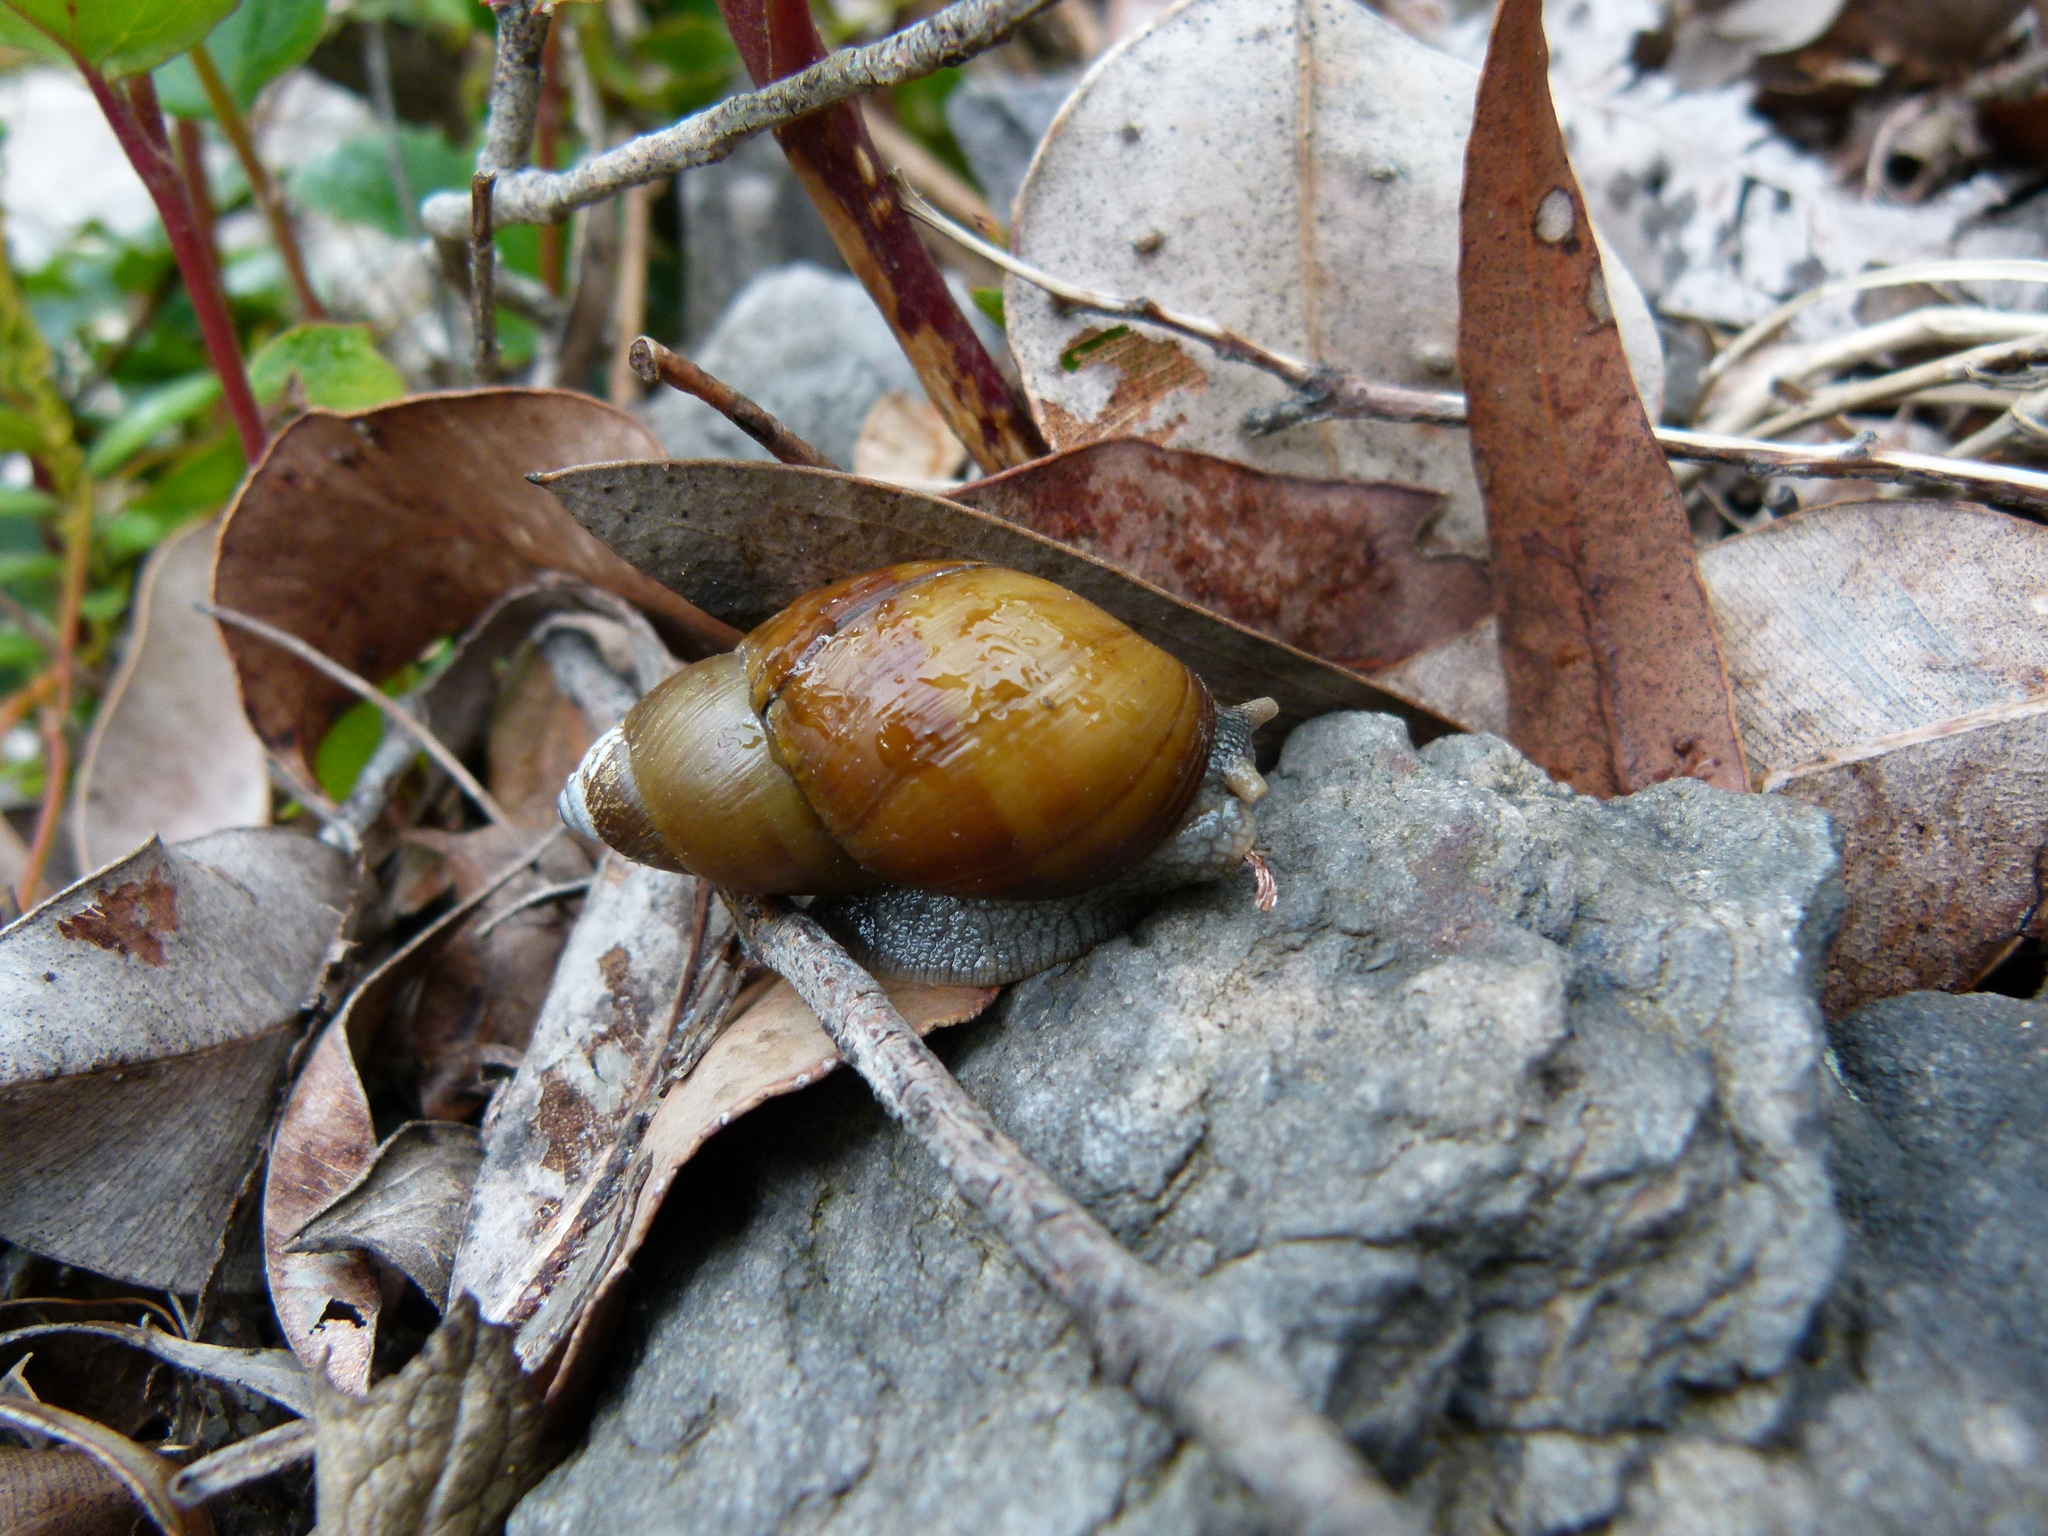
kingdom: Animalia
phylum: Mollusca
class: Gastropoda
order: Stylommatophora
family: Bothriembryontidae
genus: Bothriembryon
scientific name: Bothriembryon glauerti
